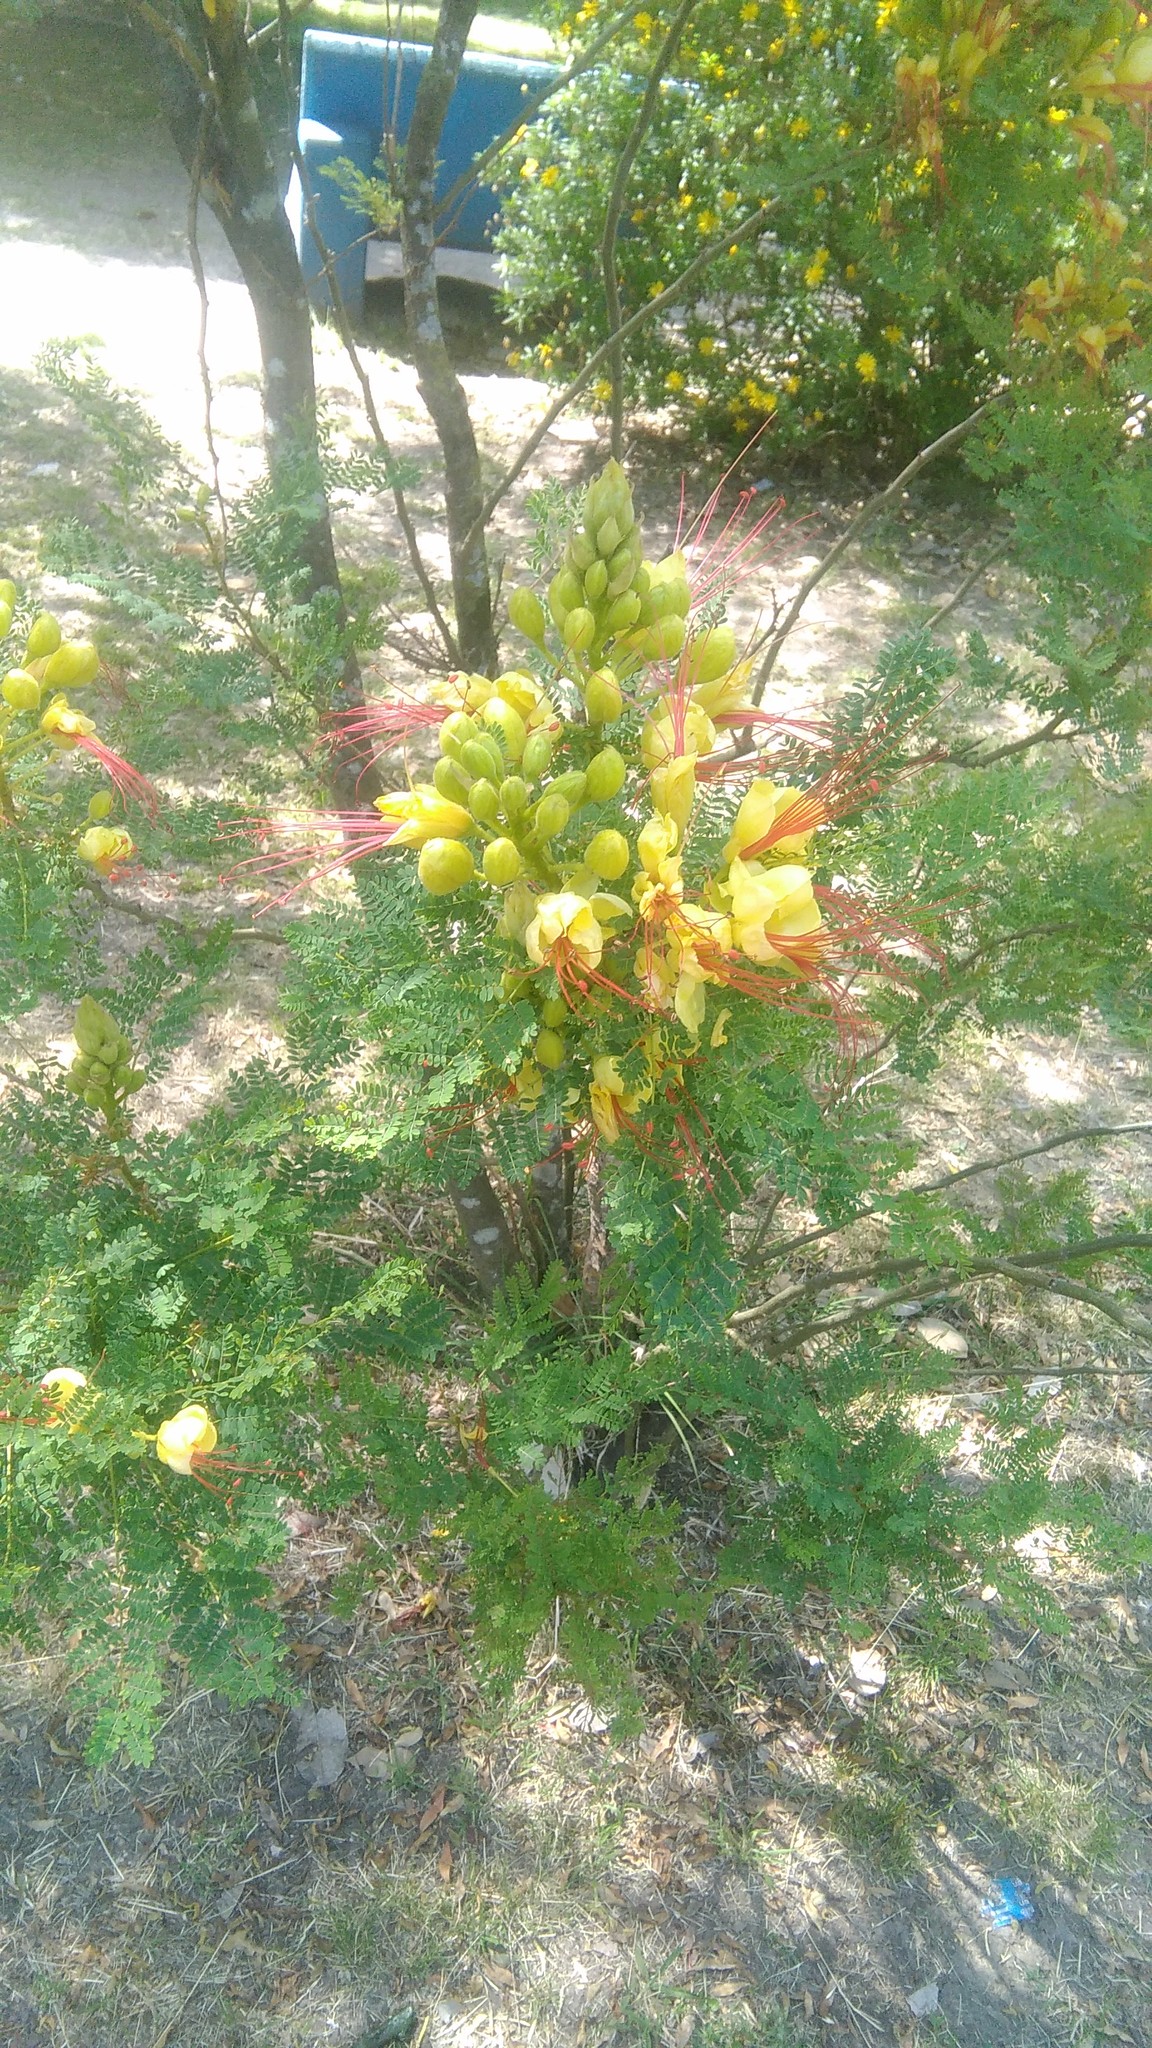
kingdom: Plantae
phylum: Tracheophyta
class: Magnoliopsida
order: Fabales
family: Fabaceae
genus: Erythrostemon
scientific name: Erythrostemon gilliesii
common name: Bird-of-paradise shrub
